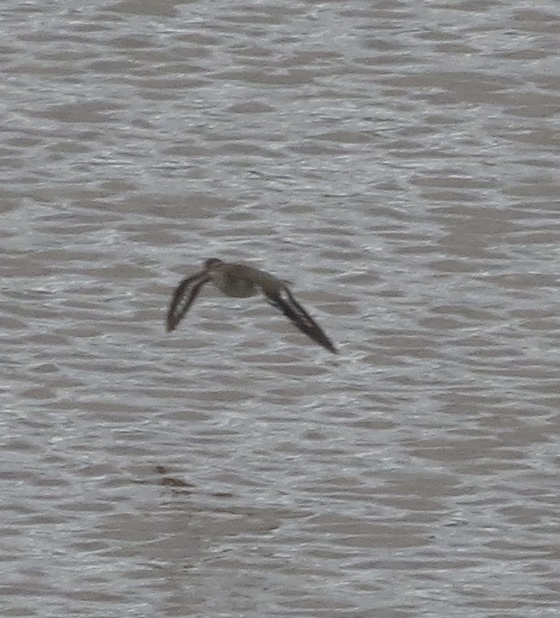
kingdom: Animalia
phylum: Chordata
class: Aves
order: Charadriiformes
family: Scolopacidae
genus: Actitis
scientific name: Actitis macularius
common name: Spotted sandpiper
